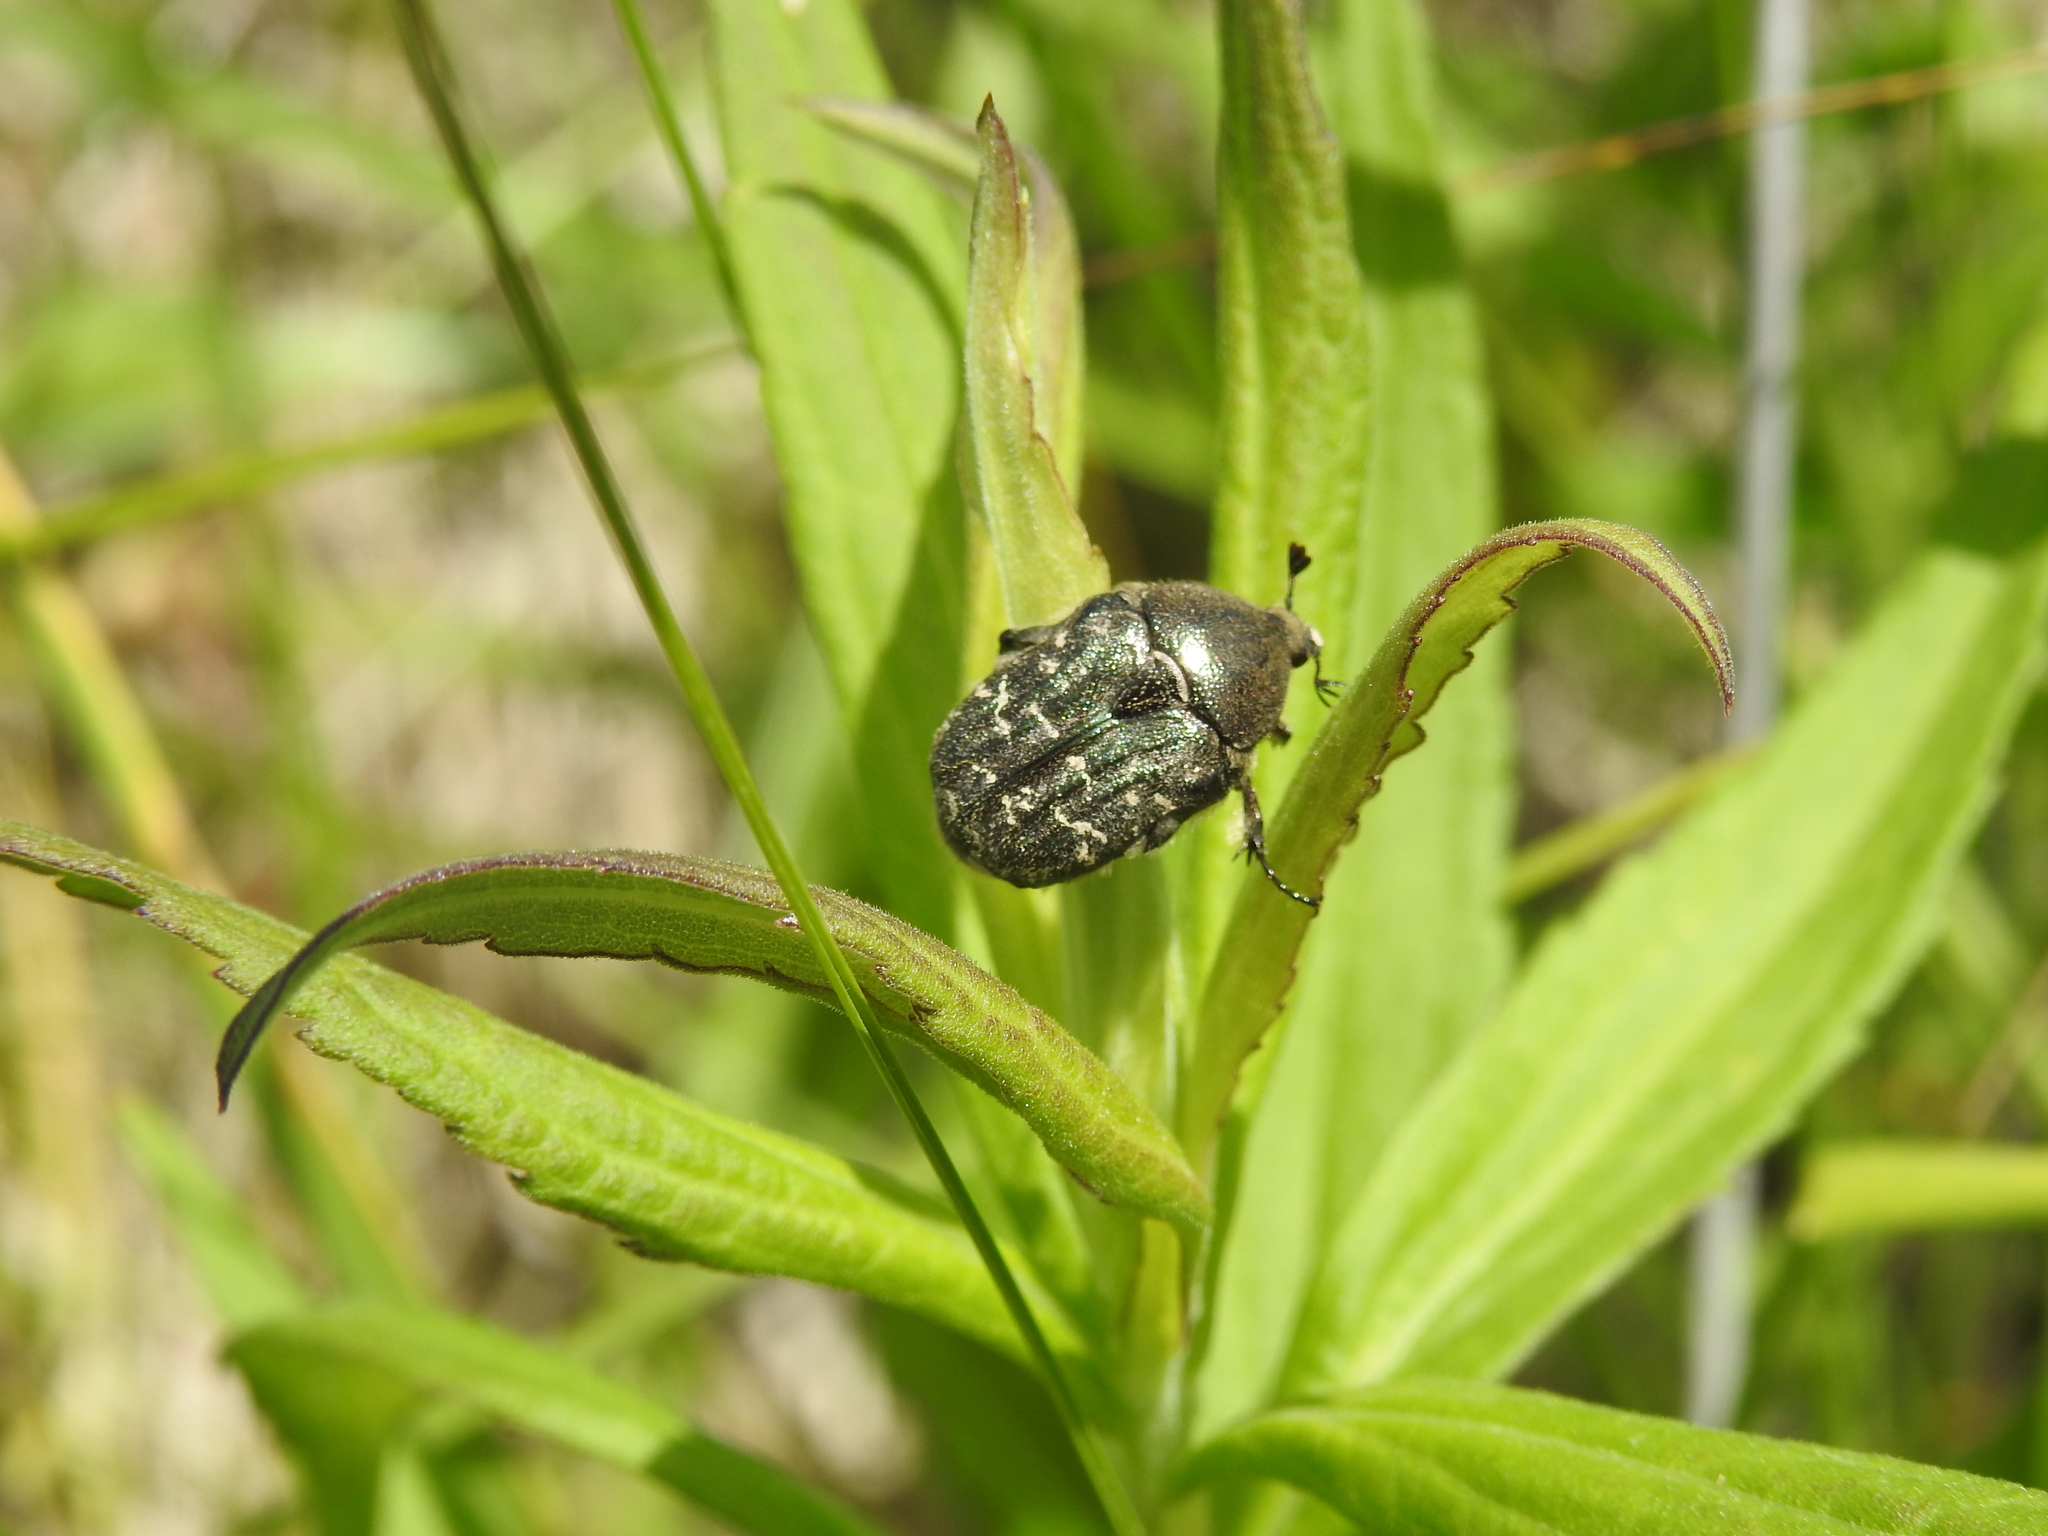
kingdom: Animalia
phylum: Arthropoda
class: Insecta
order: Coleoptera
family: Scarabaeidae
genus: Euphoria
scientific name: Euphoria sepulcralis
